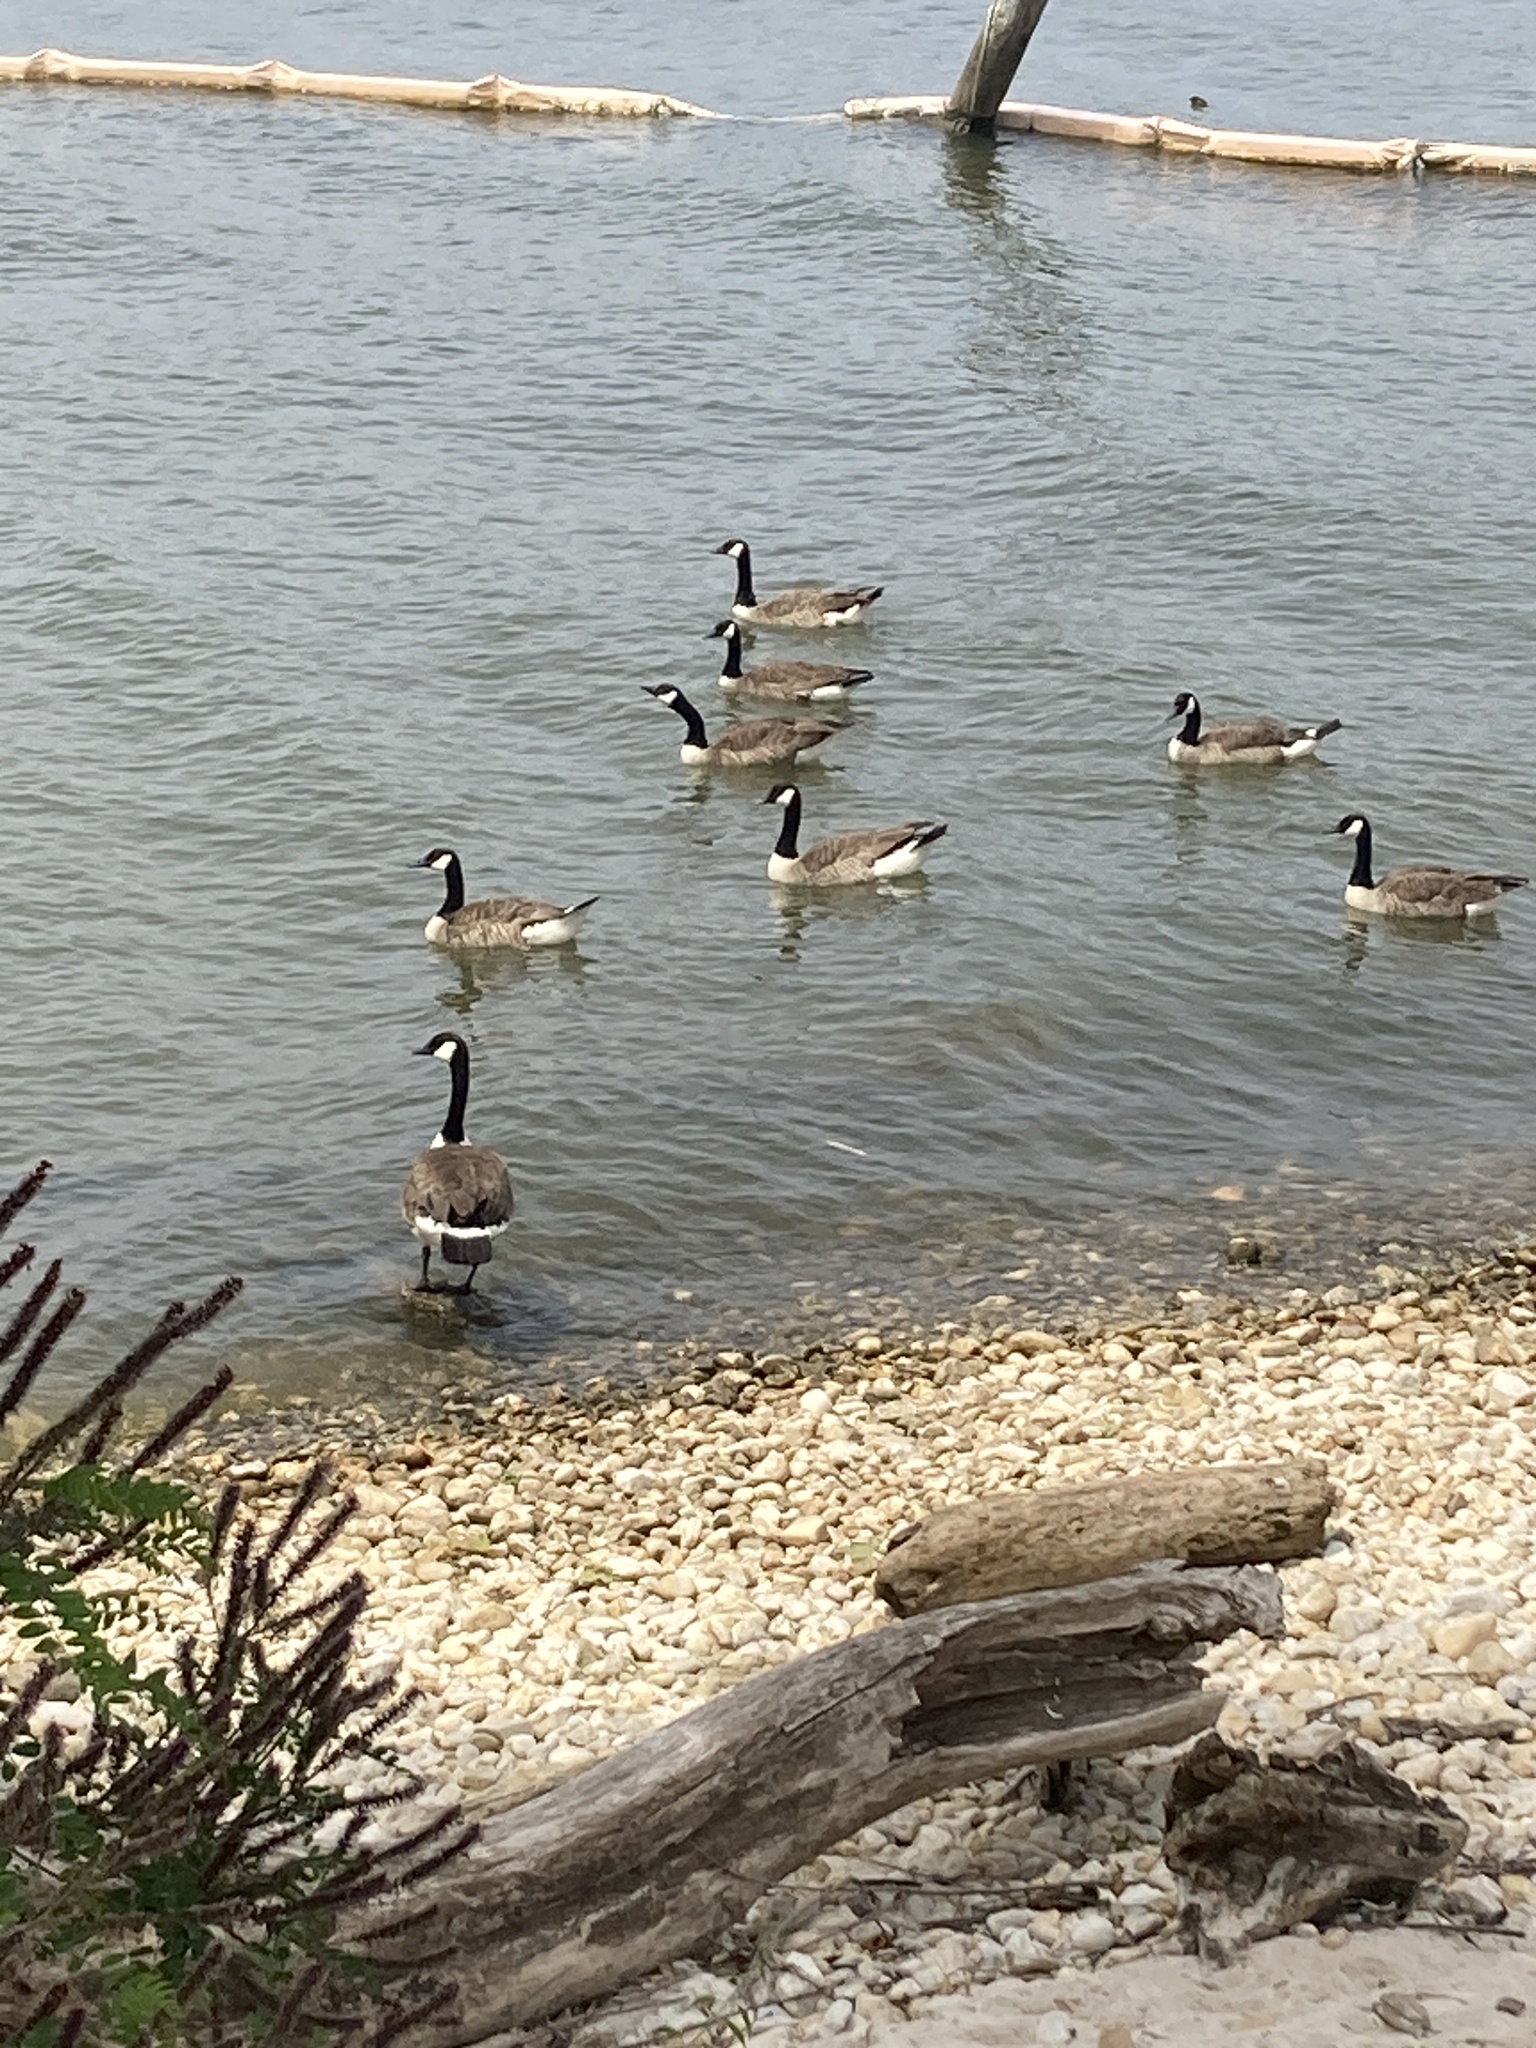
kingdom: Animalia
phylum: Chordata
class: Aves
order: Anseriformes
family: Anatidae
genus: Branta
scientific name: Branta canadensis
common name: Canada goose
